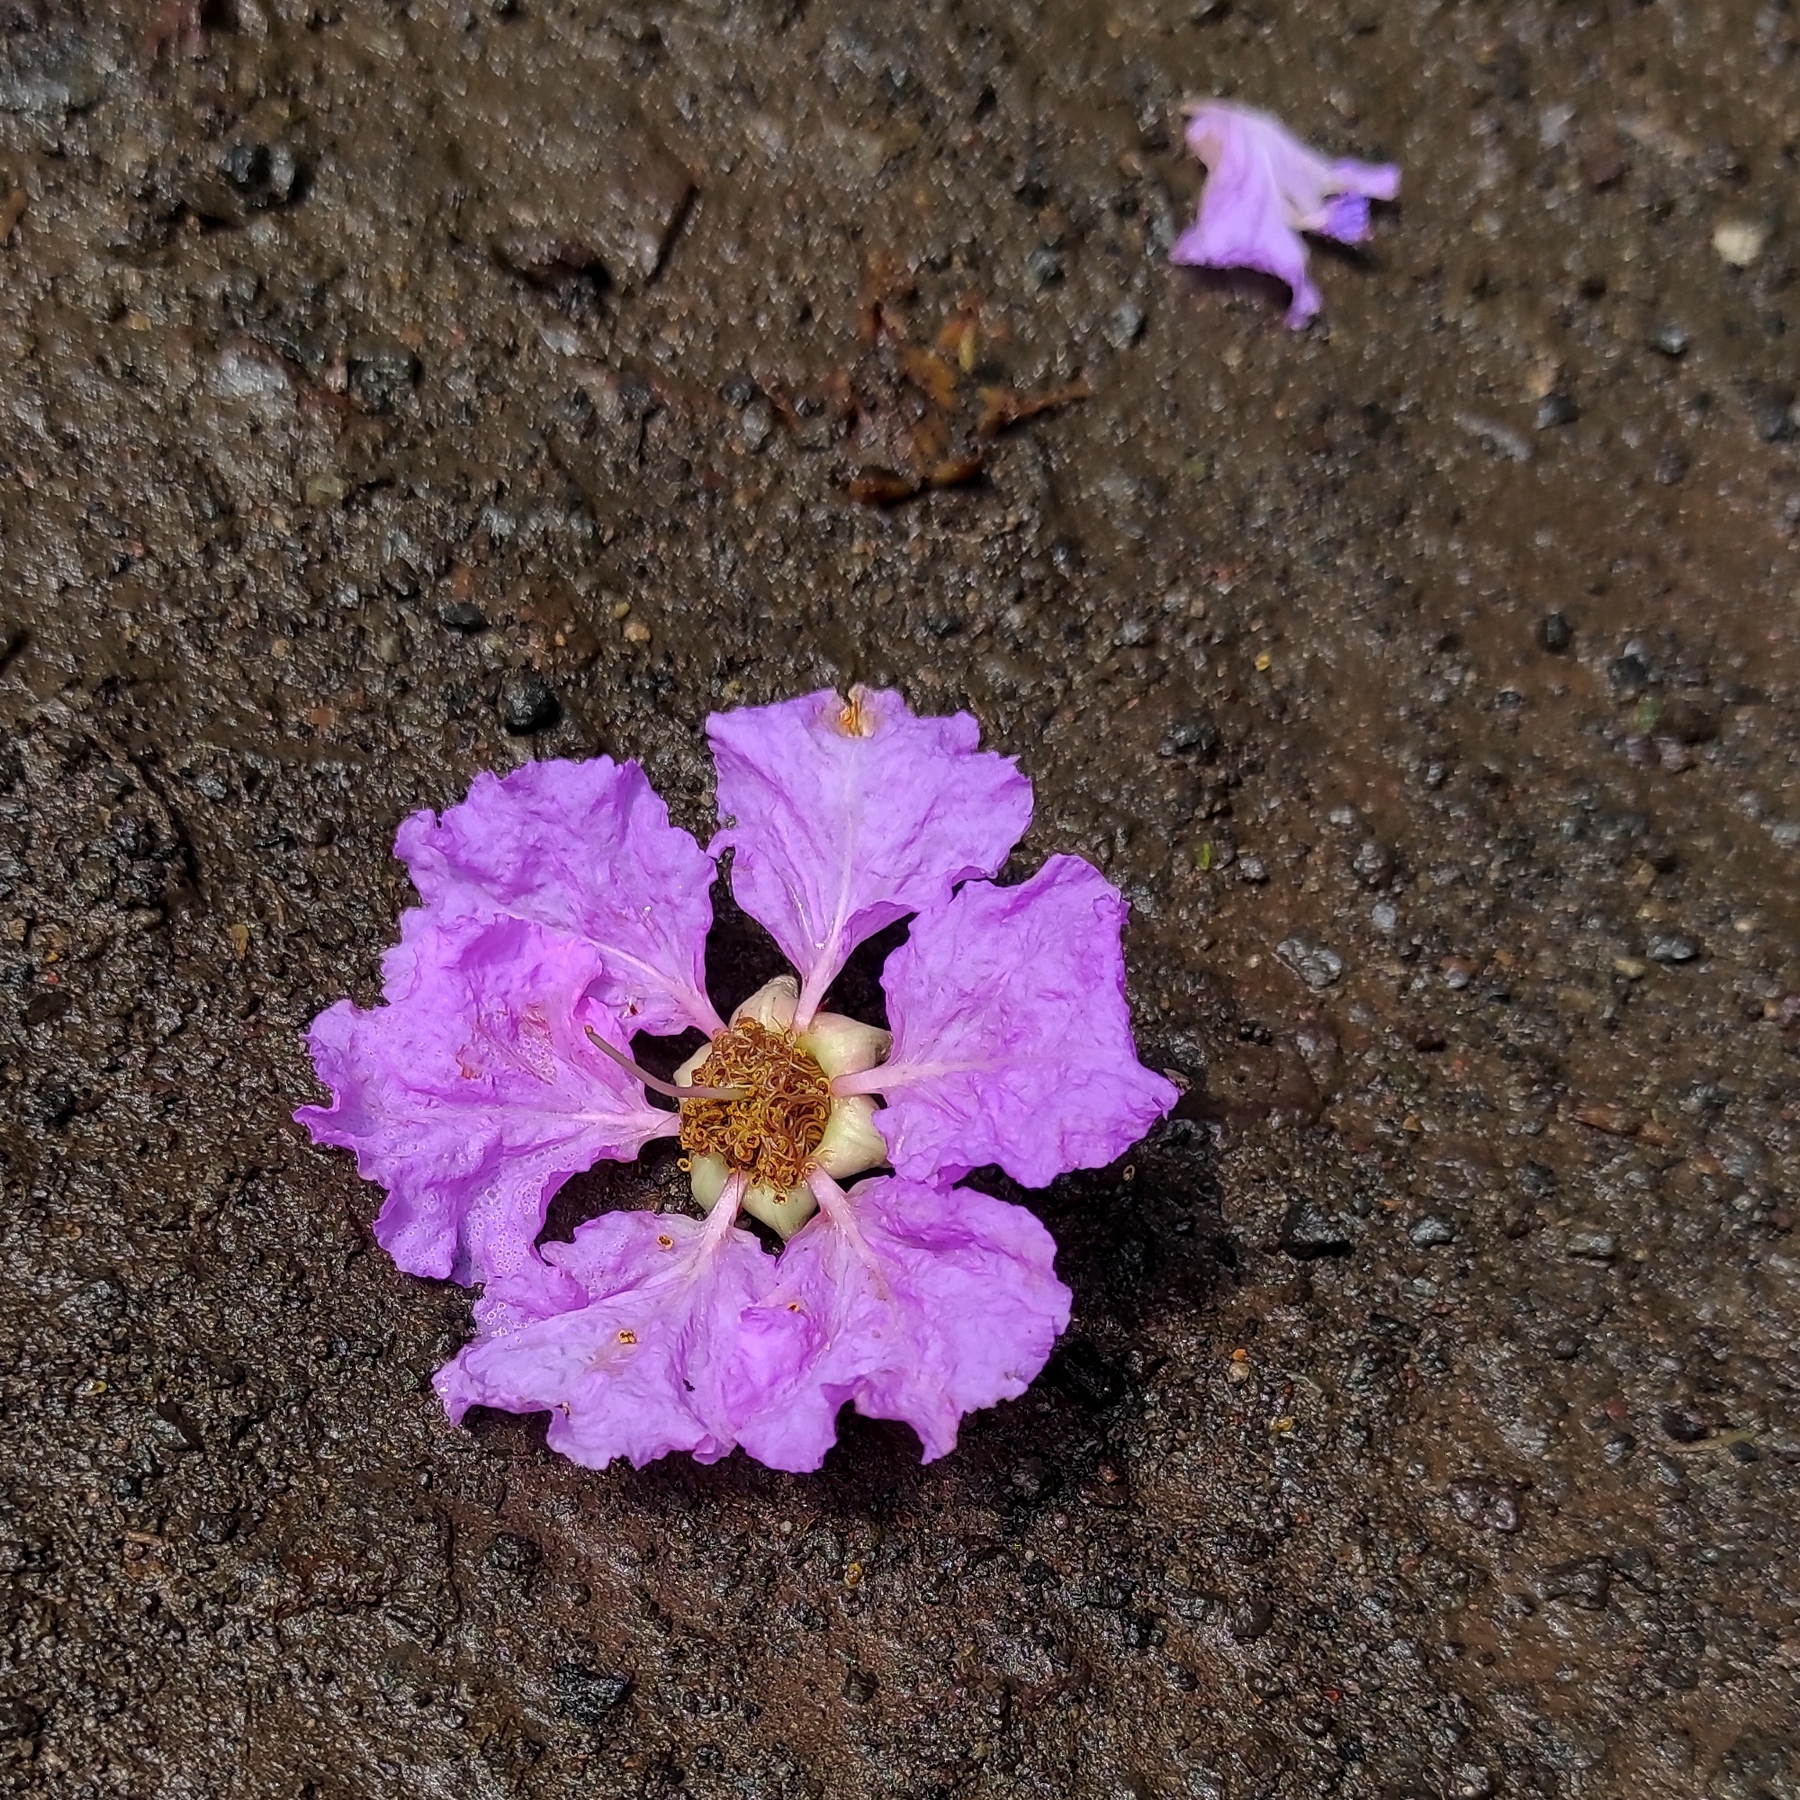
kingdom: Plantae
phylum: Tracheophyta
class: Magnoliopsida
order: Myrtales
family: Lythraceae
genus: Lagerstroemia
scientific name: Lagerstroemia speciosa
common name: Queen's crape-myrtle
